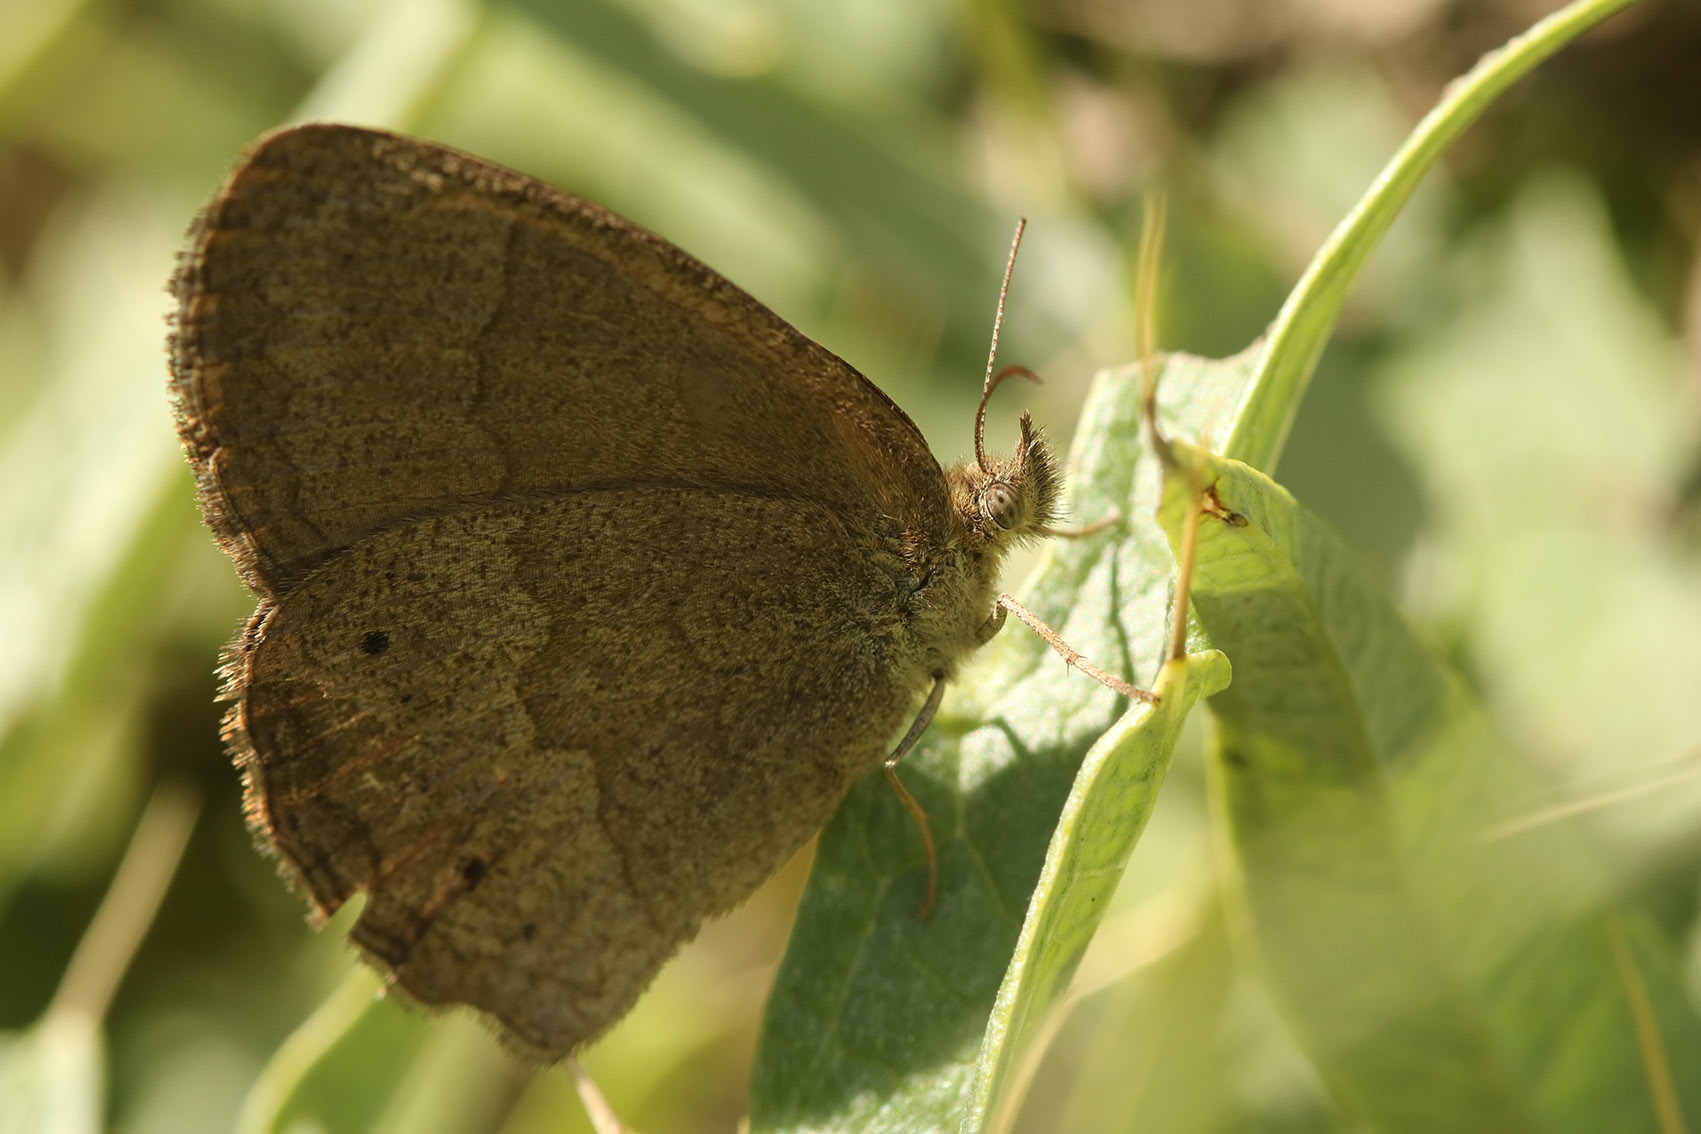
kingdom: Animalia
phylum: Arthropoda
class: Insecta
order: Lepidoptera
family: Nymphalidae
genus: Yphthimoides
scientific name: Yphthimoides celmis
